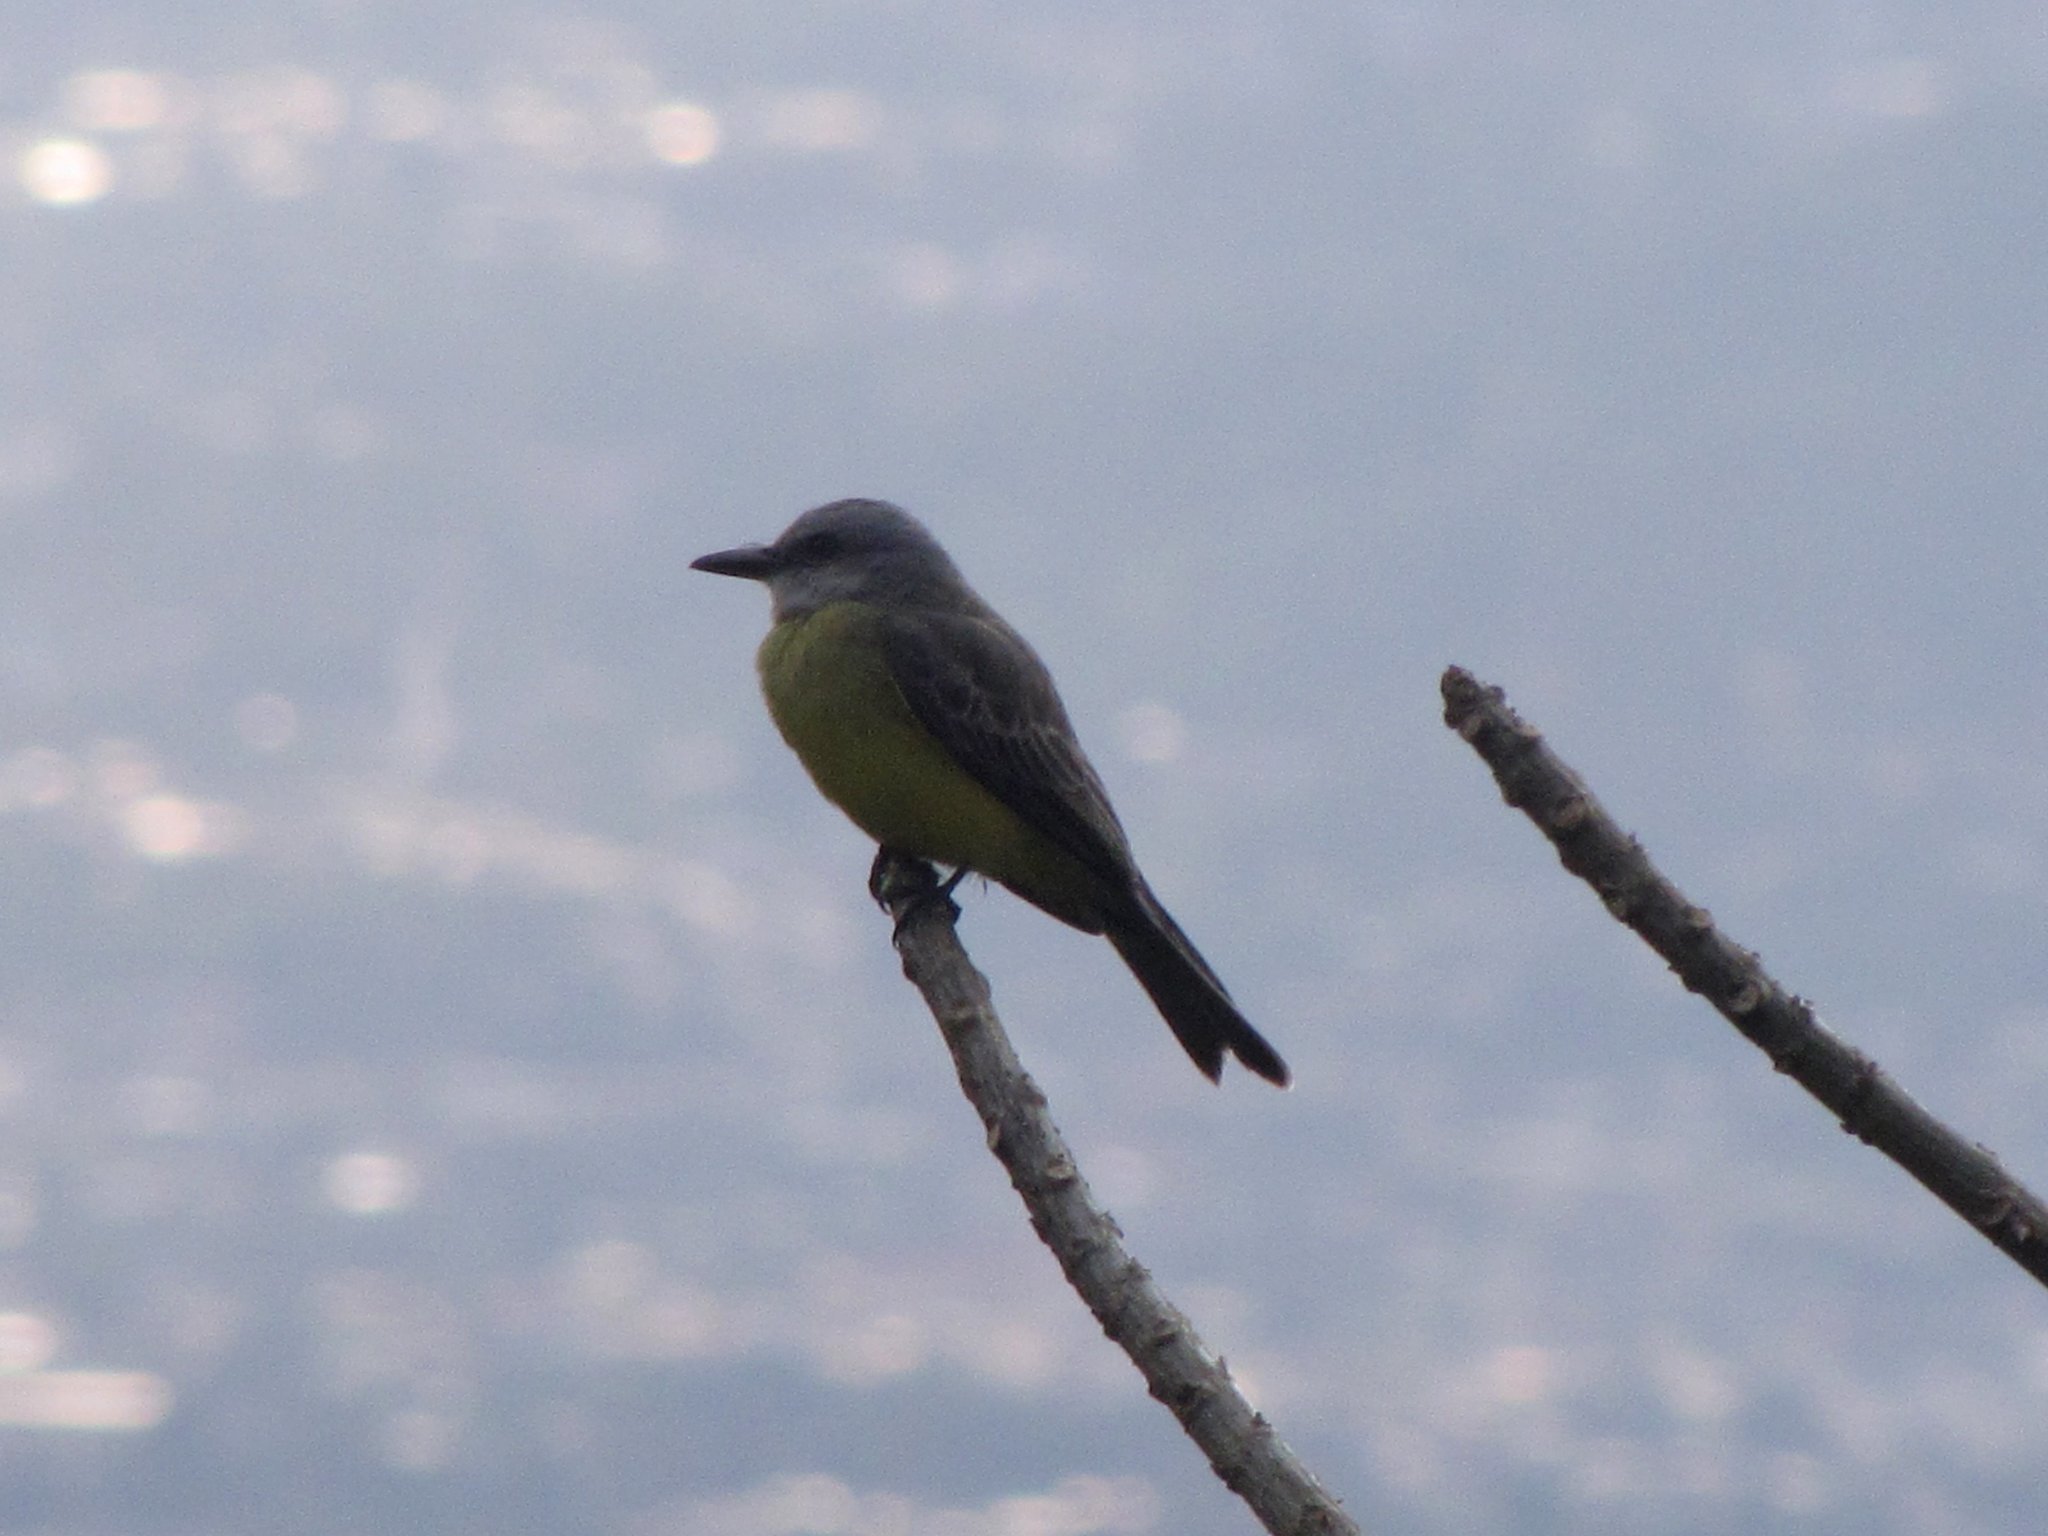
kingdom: Animalia
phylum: Chordata
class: Aves
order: Passeriformes
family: Tyrannidae
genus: Tyrannus
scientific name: Tyrannus melancholicus
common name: Tropical kingbird
